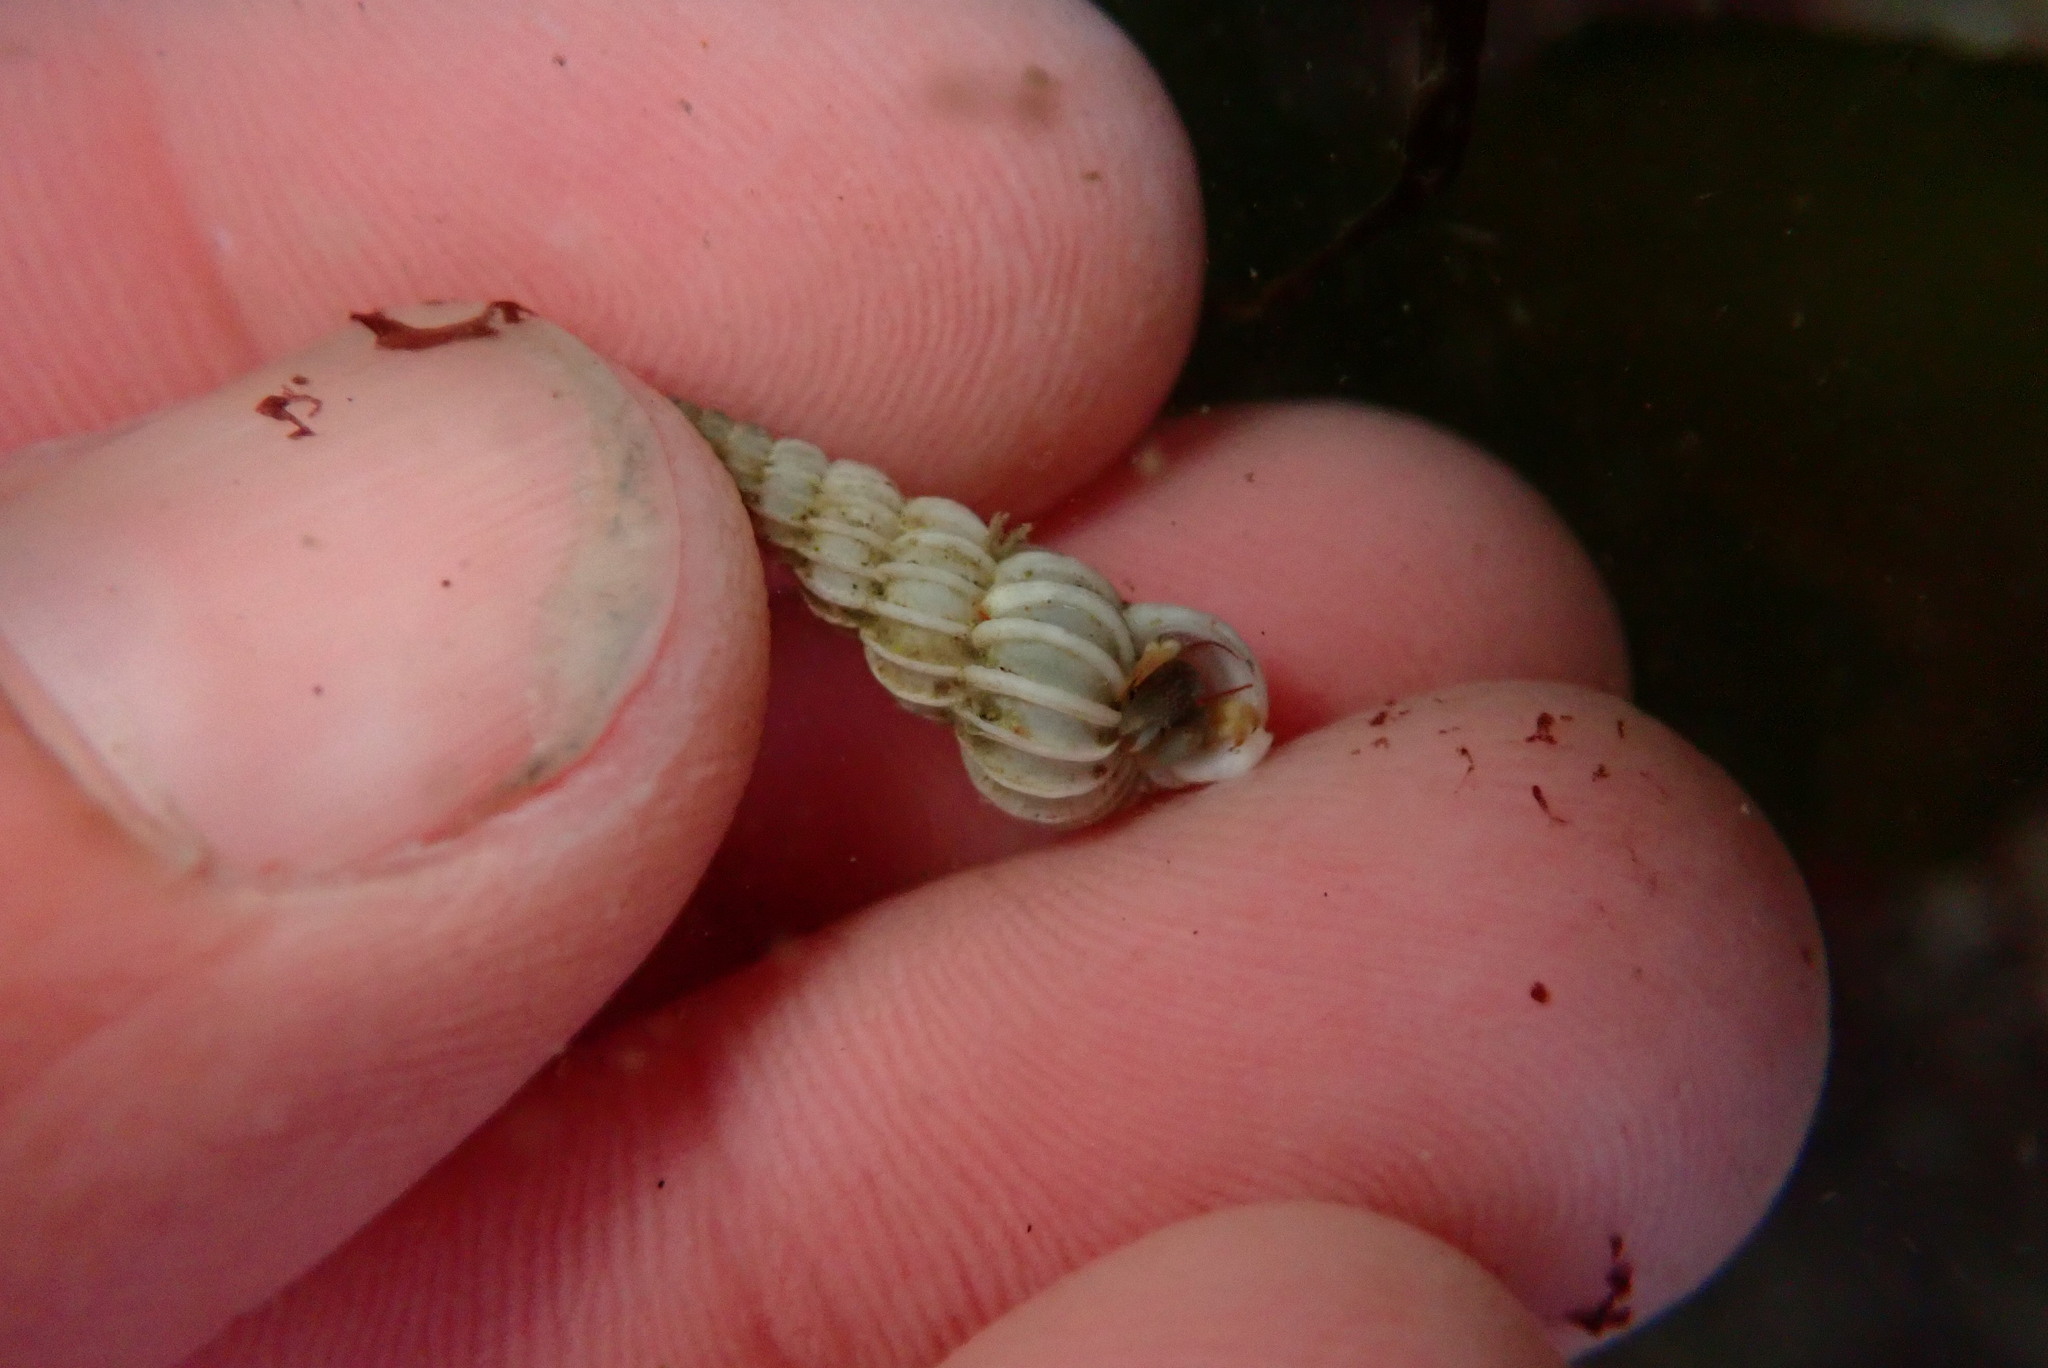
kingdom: Animalia
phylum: Mollusca
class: Gastropoda
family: Epitoniidae
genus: Epitonium
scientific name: Epitonium tinctum
